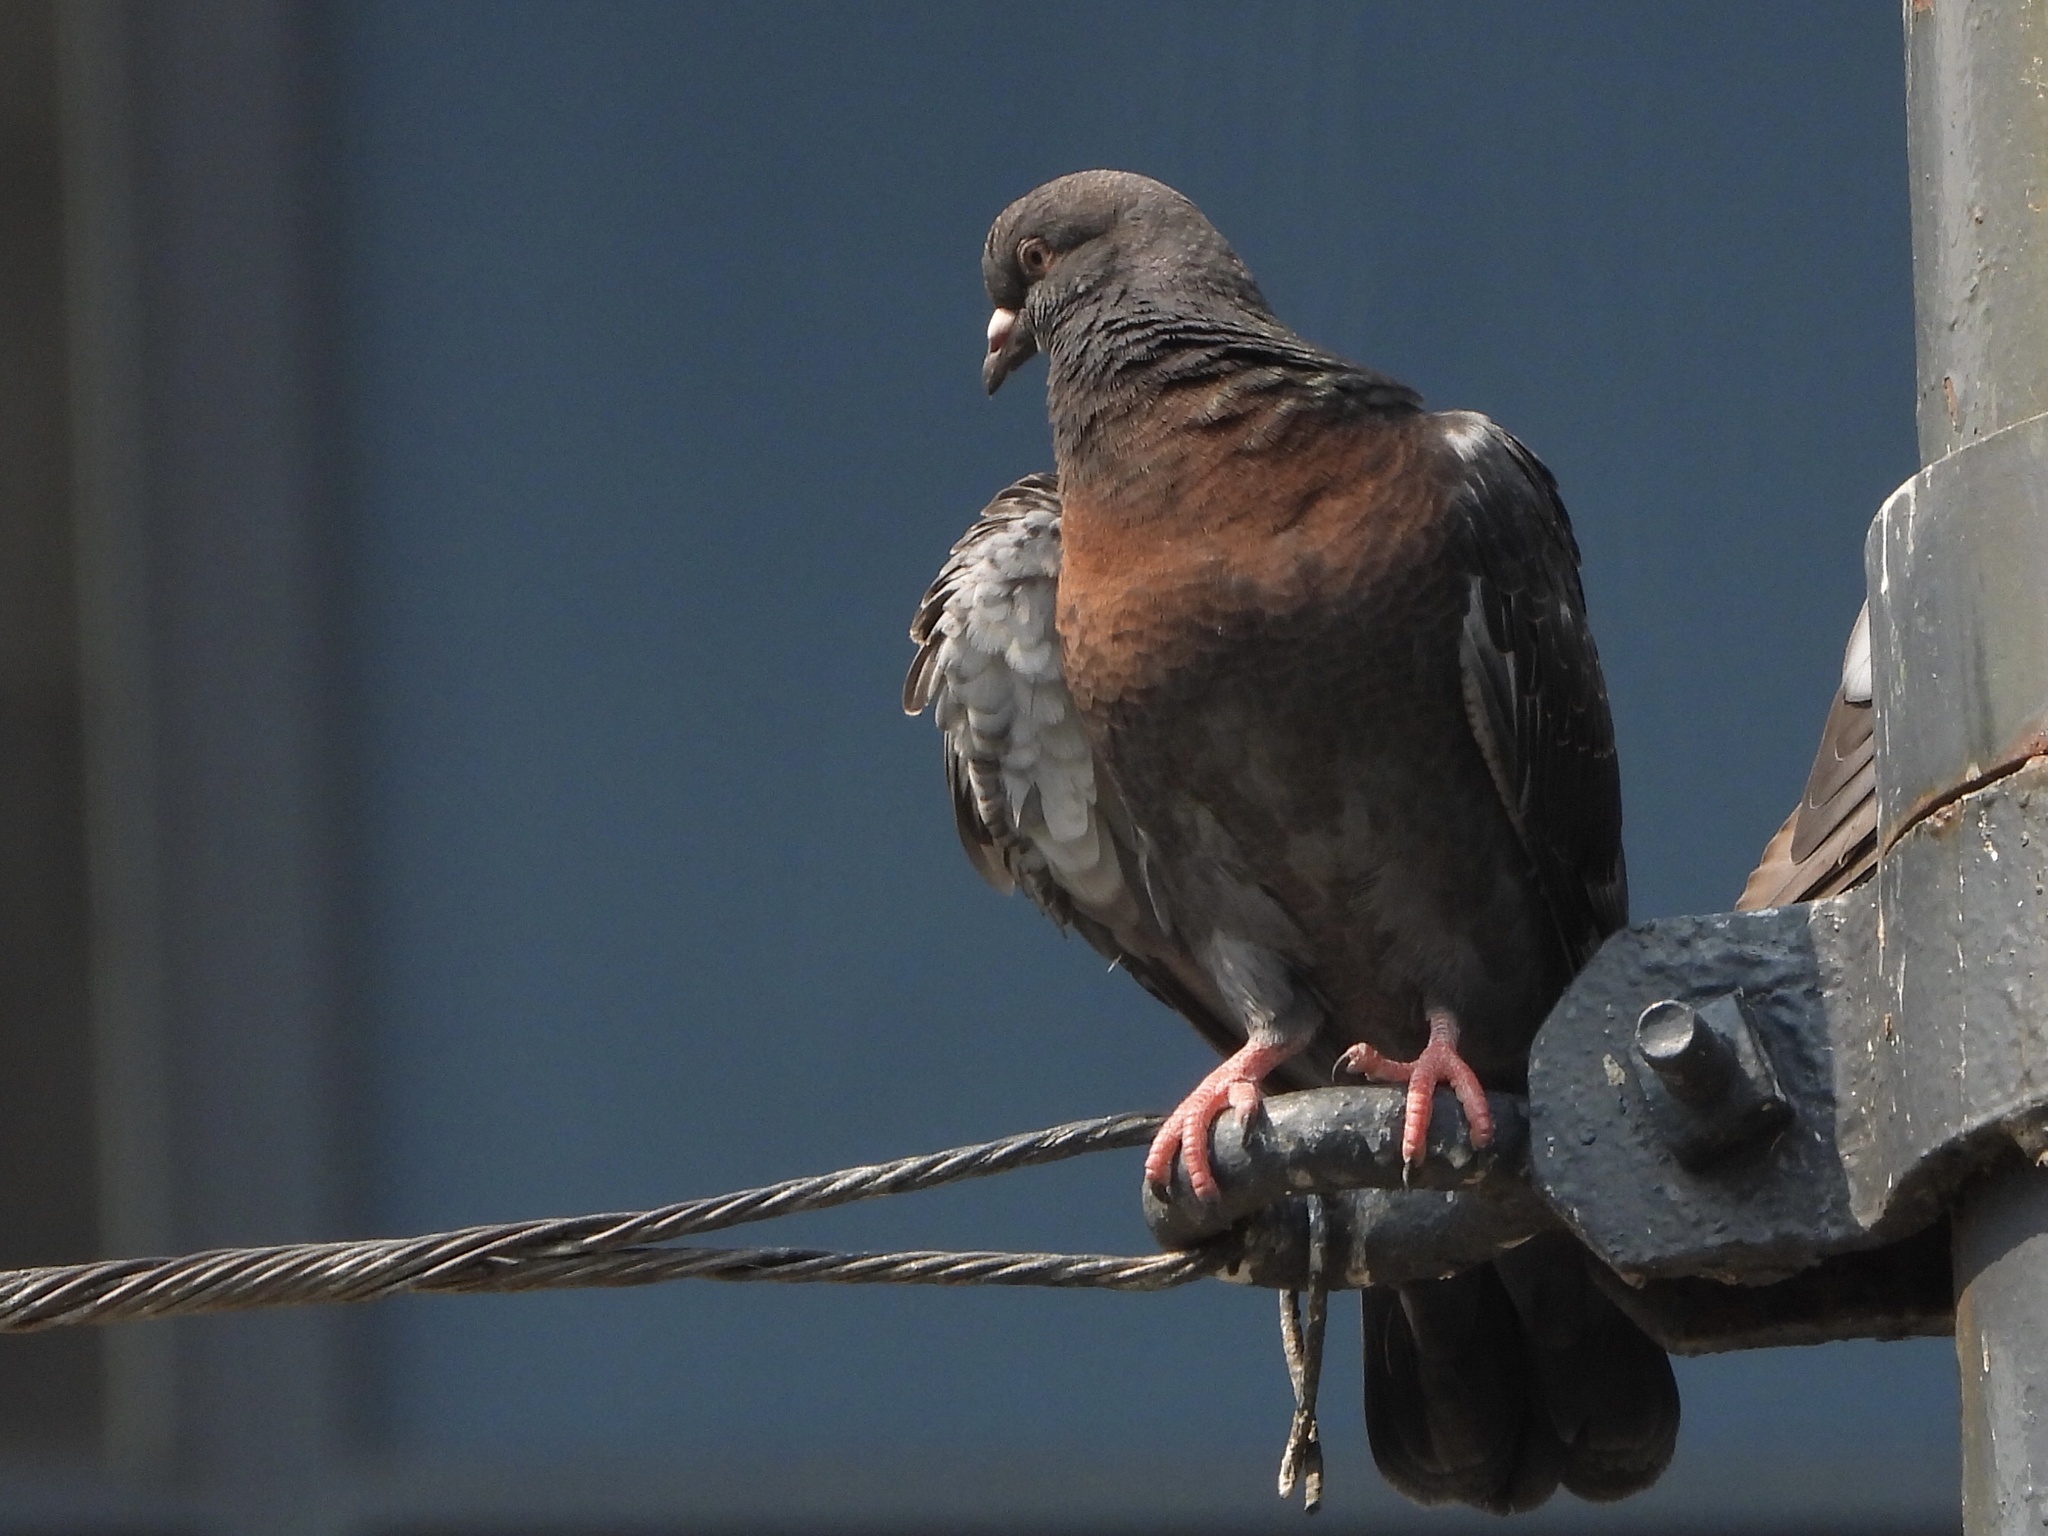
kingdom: Animalia
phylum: Chordata
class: Aves
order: Columbiformes
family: Columbidae
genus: Columba
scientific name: Columba livia
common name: Rock pigeon
